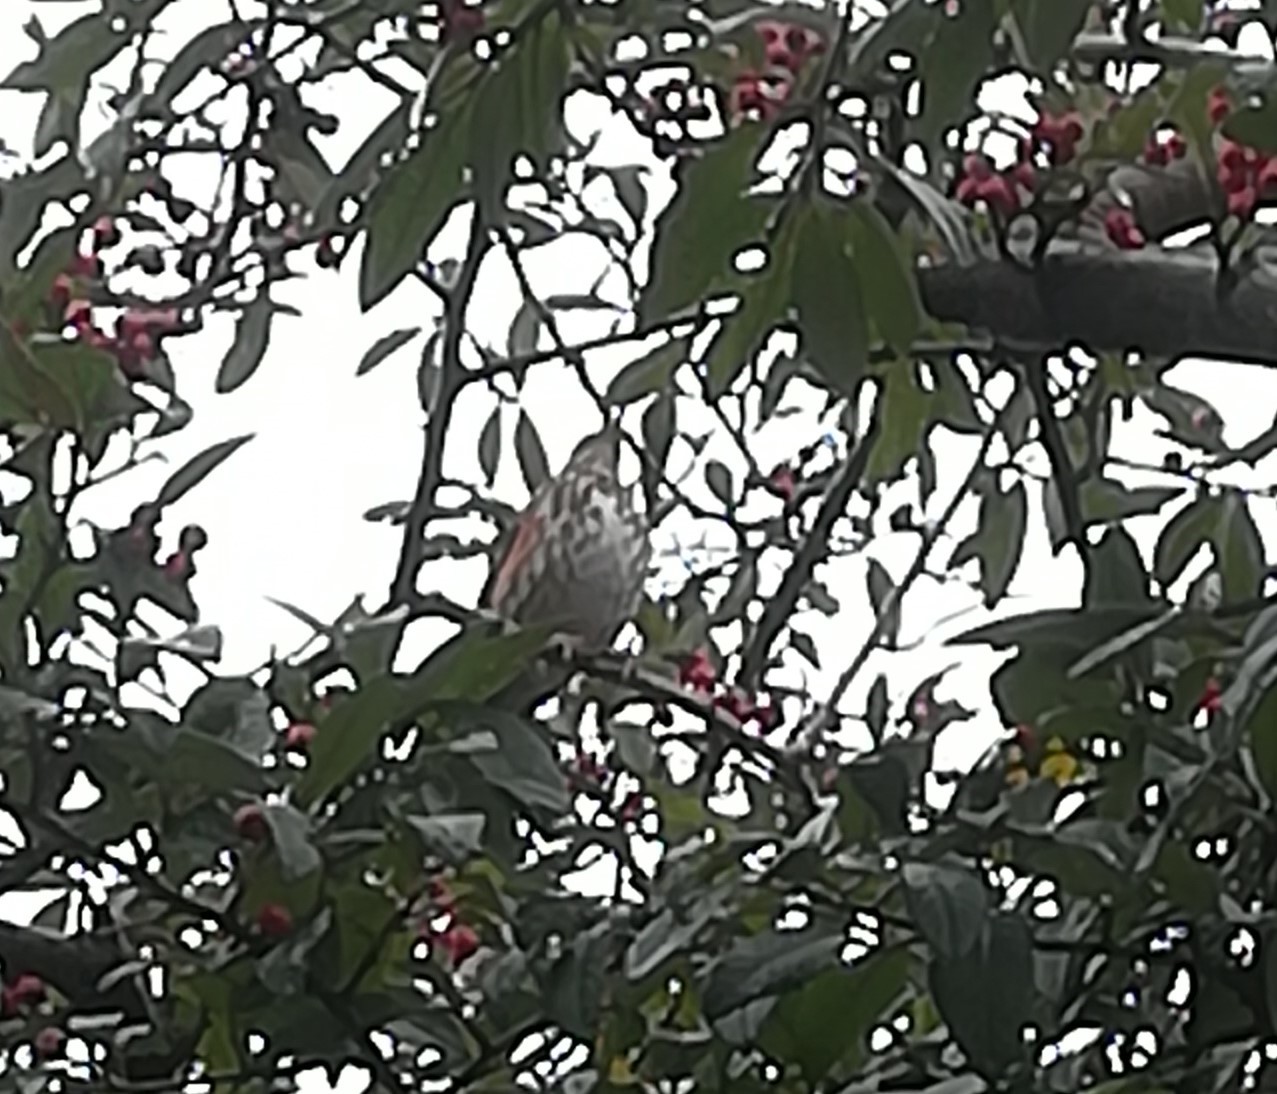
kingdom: Animalia
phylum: Chordata
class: Aves
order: Passeriformes
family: Turdidae
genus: Turdus
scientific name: Turdus iliacus
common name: Redwing
